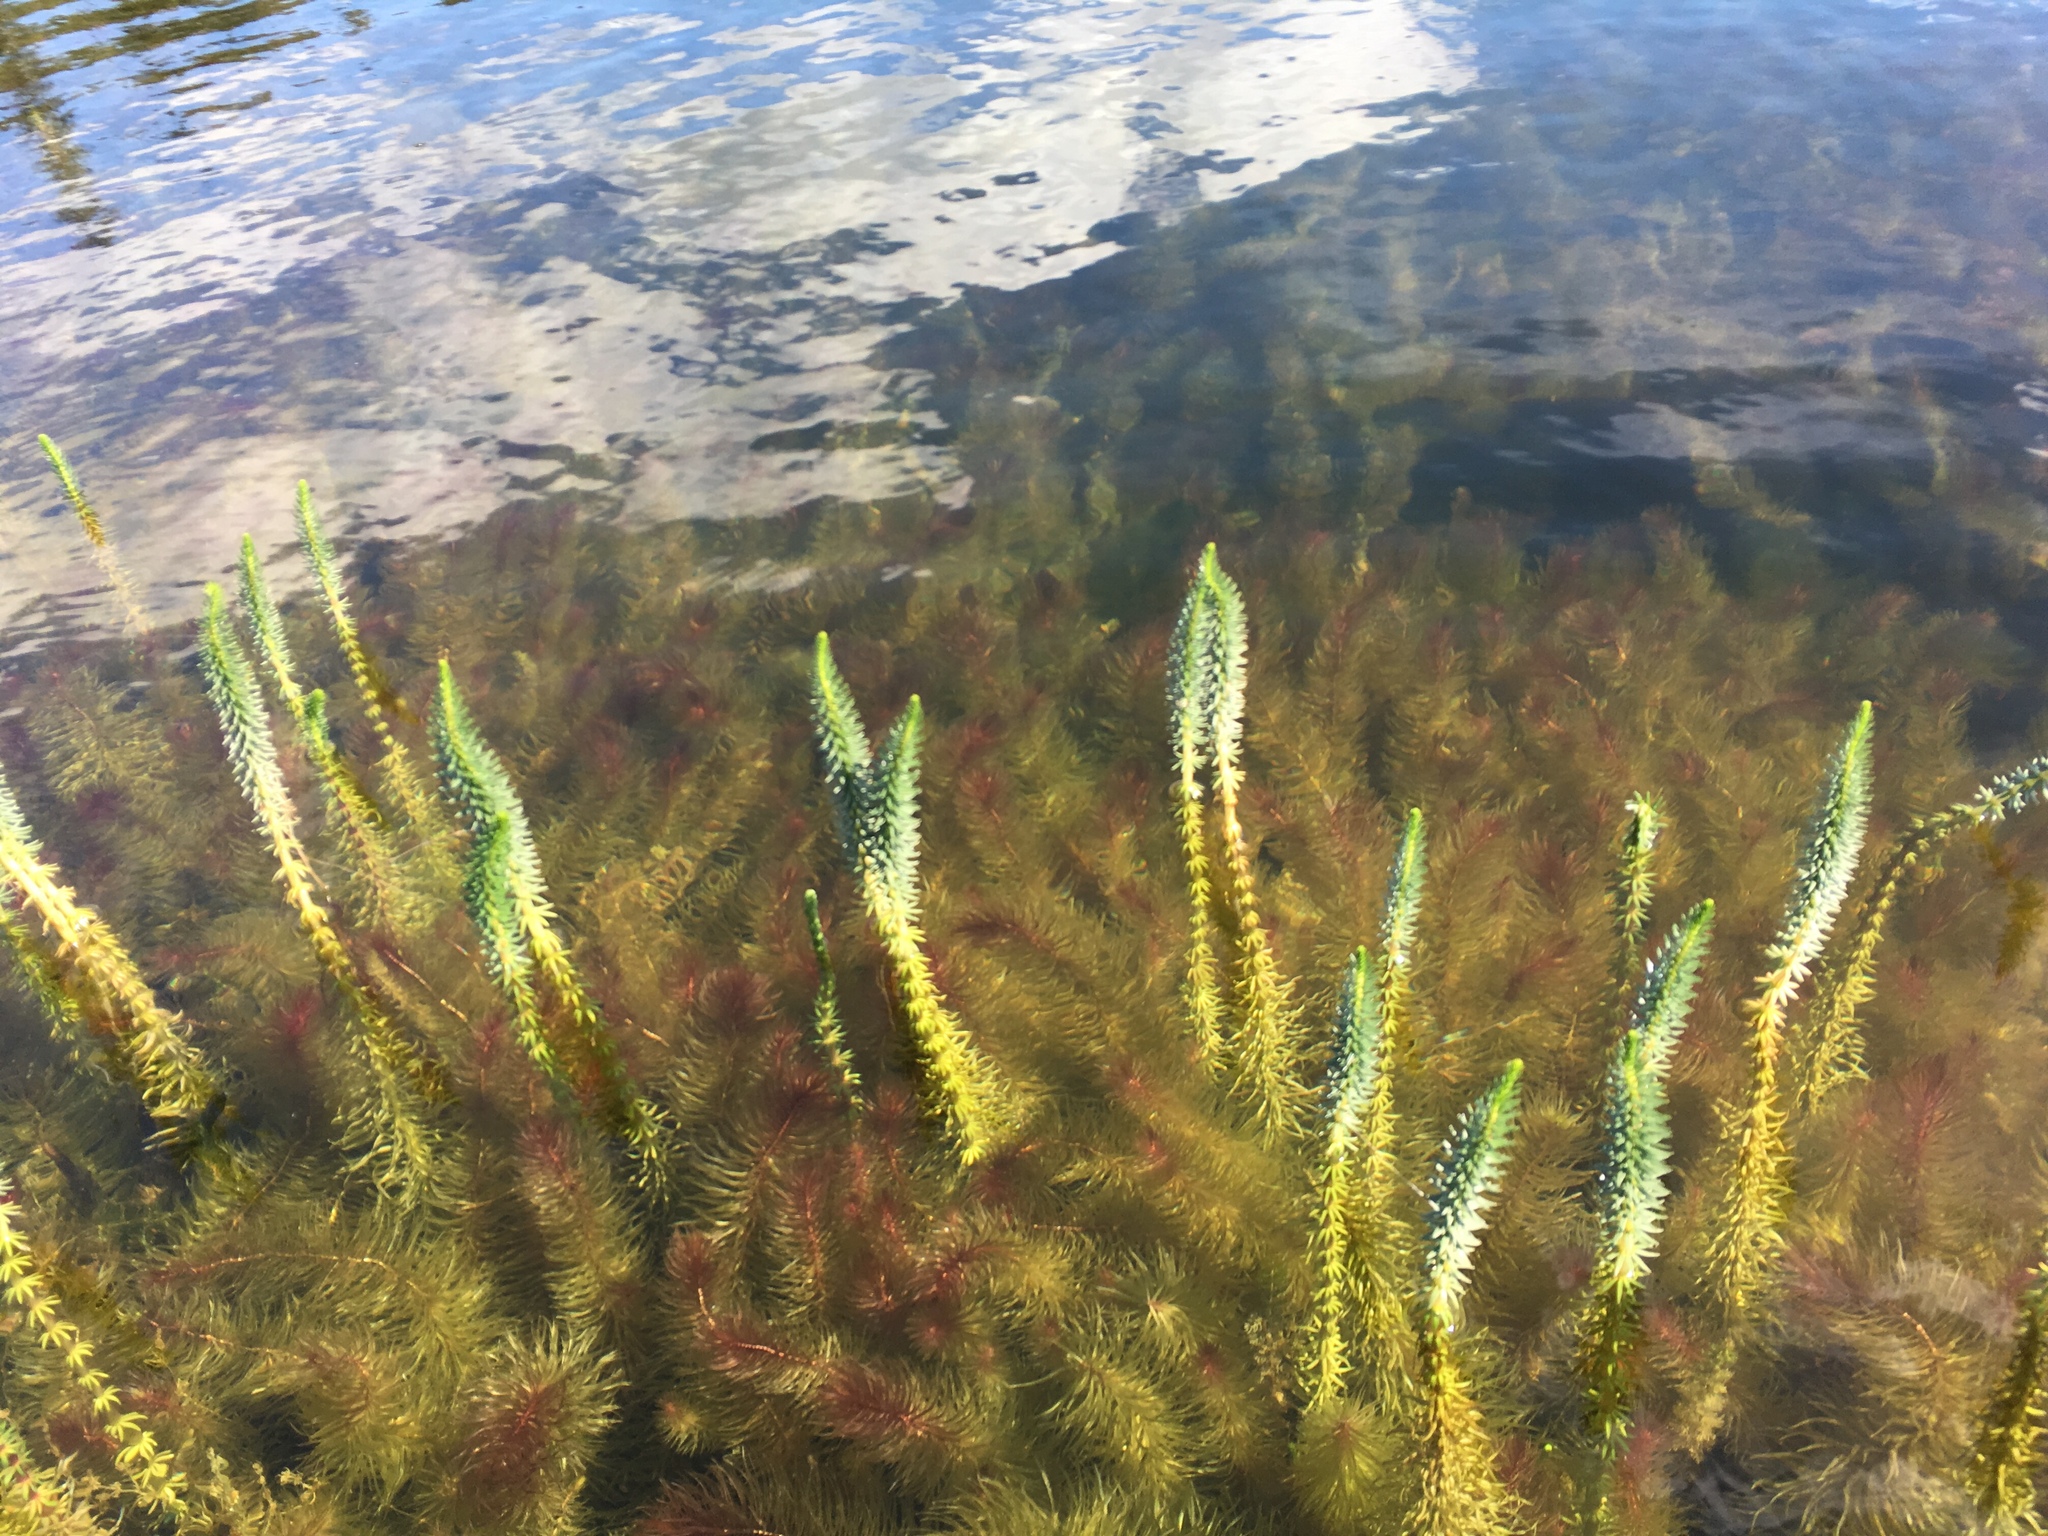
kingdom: Plantae
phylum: Tracheophyta
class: Magnoliopsida
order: Lamiales
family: Plantaginaceae
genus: Hippuris
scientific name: Hippuris vulgaris
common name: Mare's-tail
